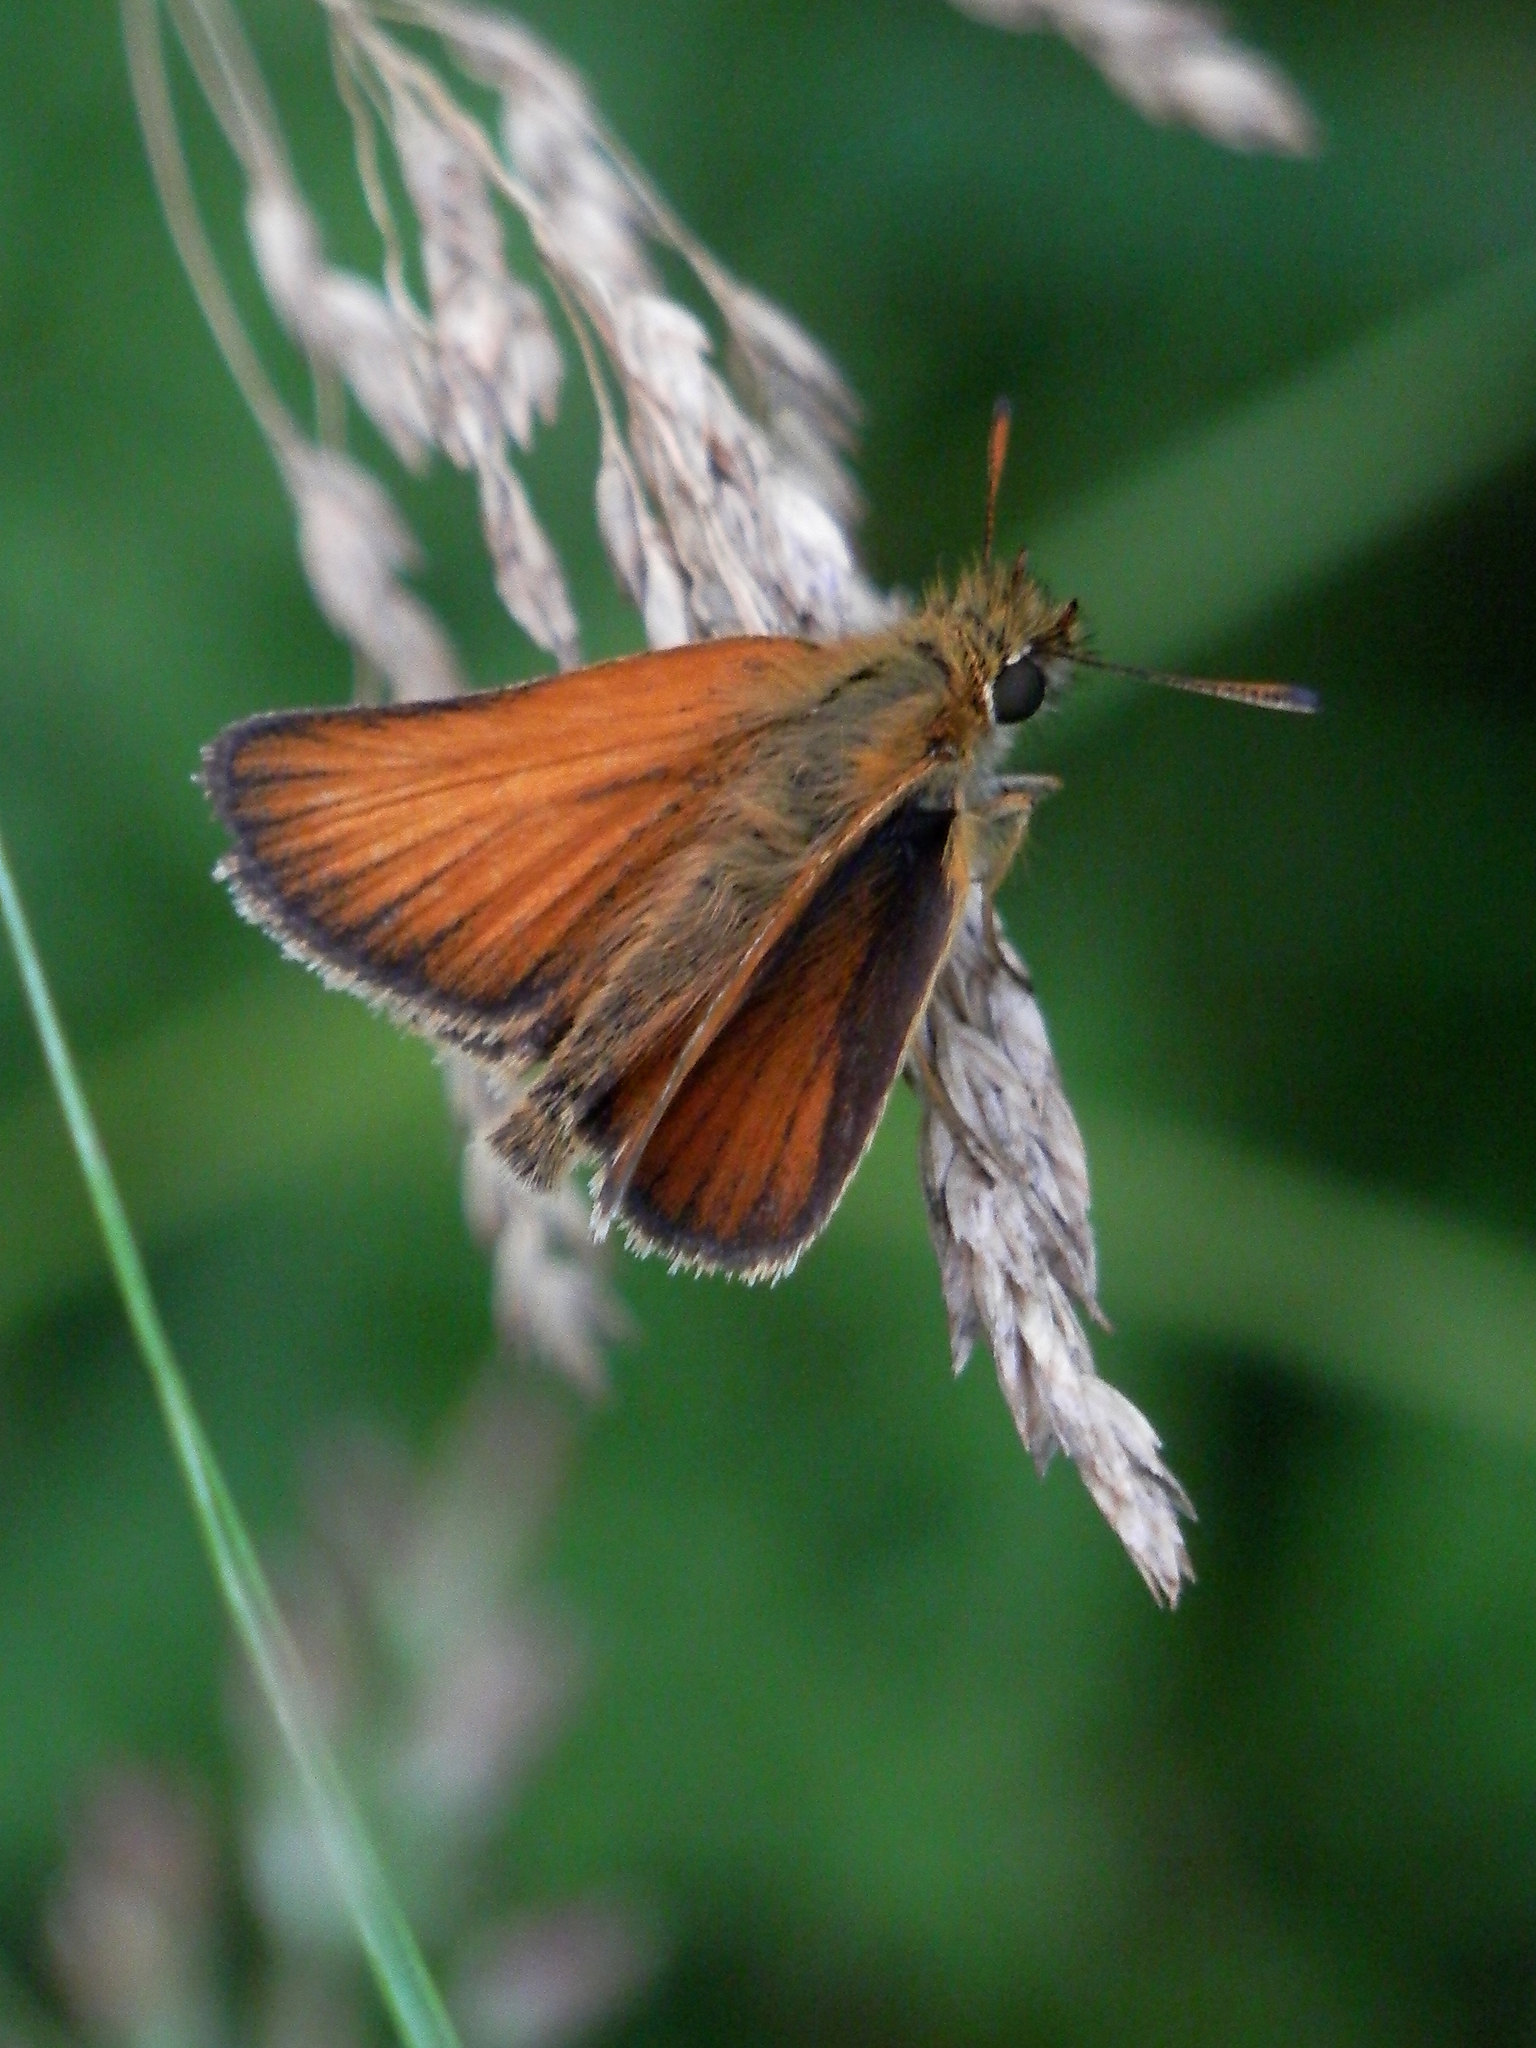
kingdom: Animalia
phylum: Arthropoda
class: Insecta
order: Lepidoptera
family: Hesperiidae
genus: Thymelicus
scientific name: Thymelicus lineola
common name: Essex skipper
